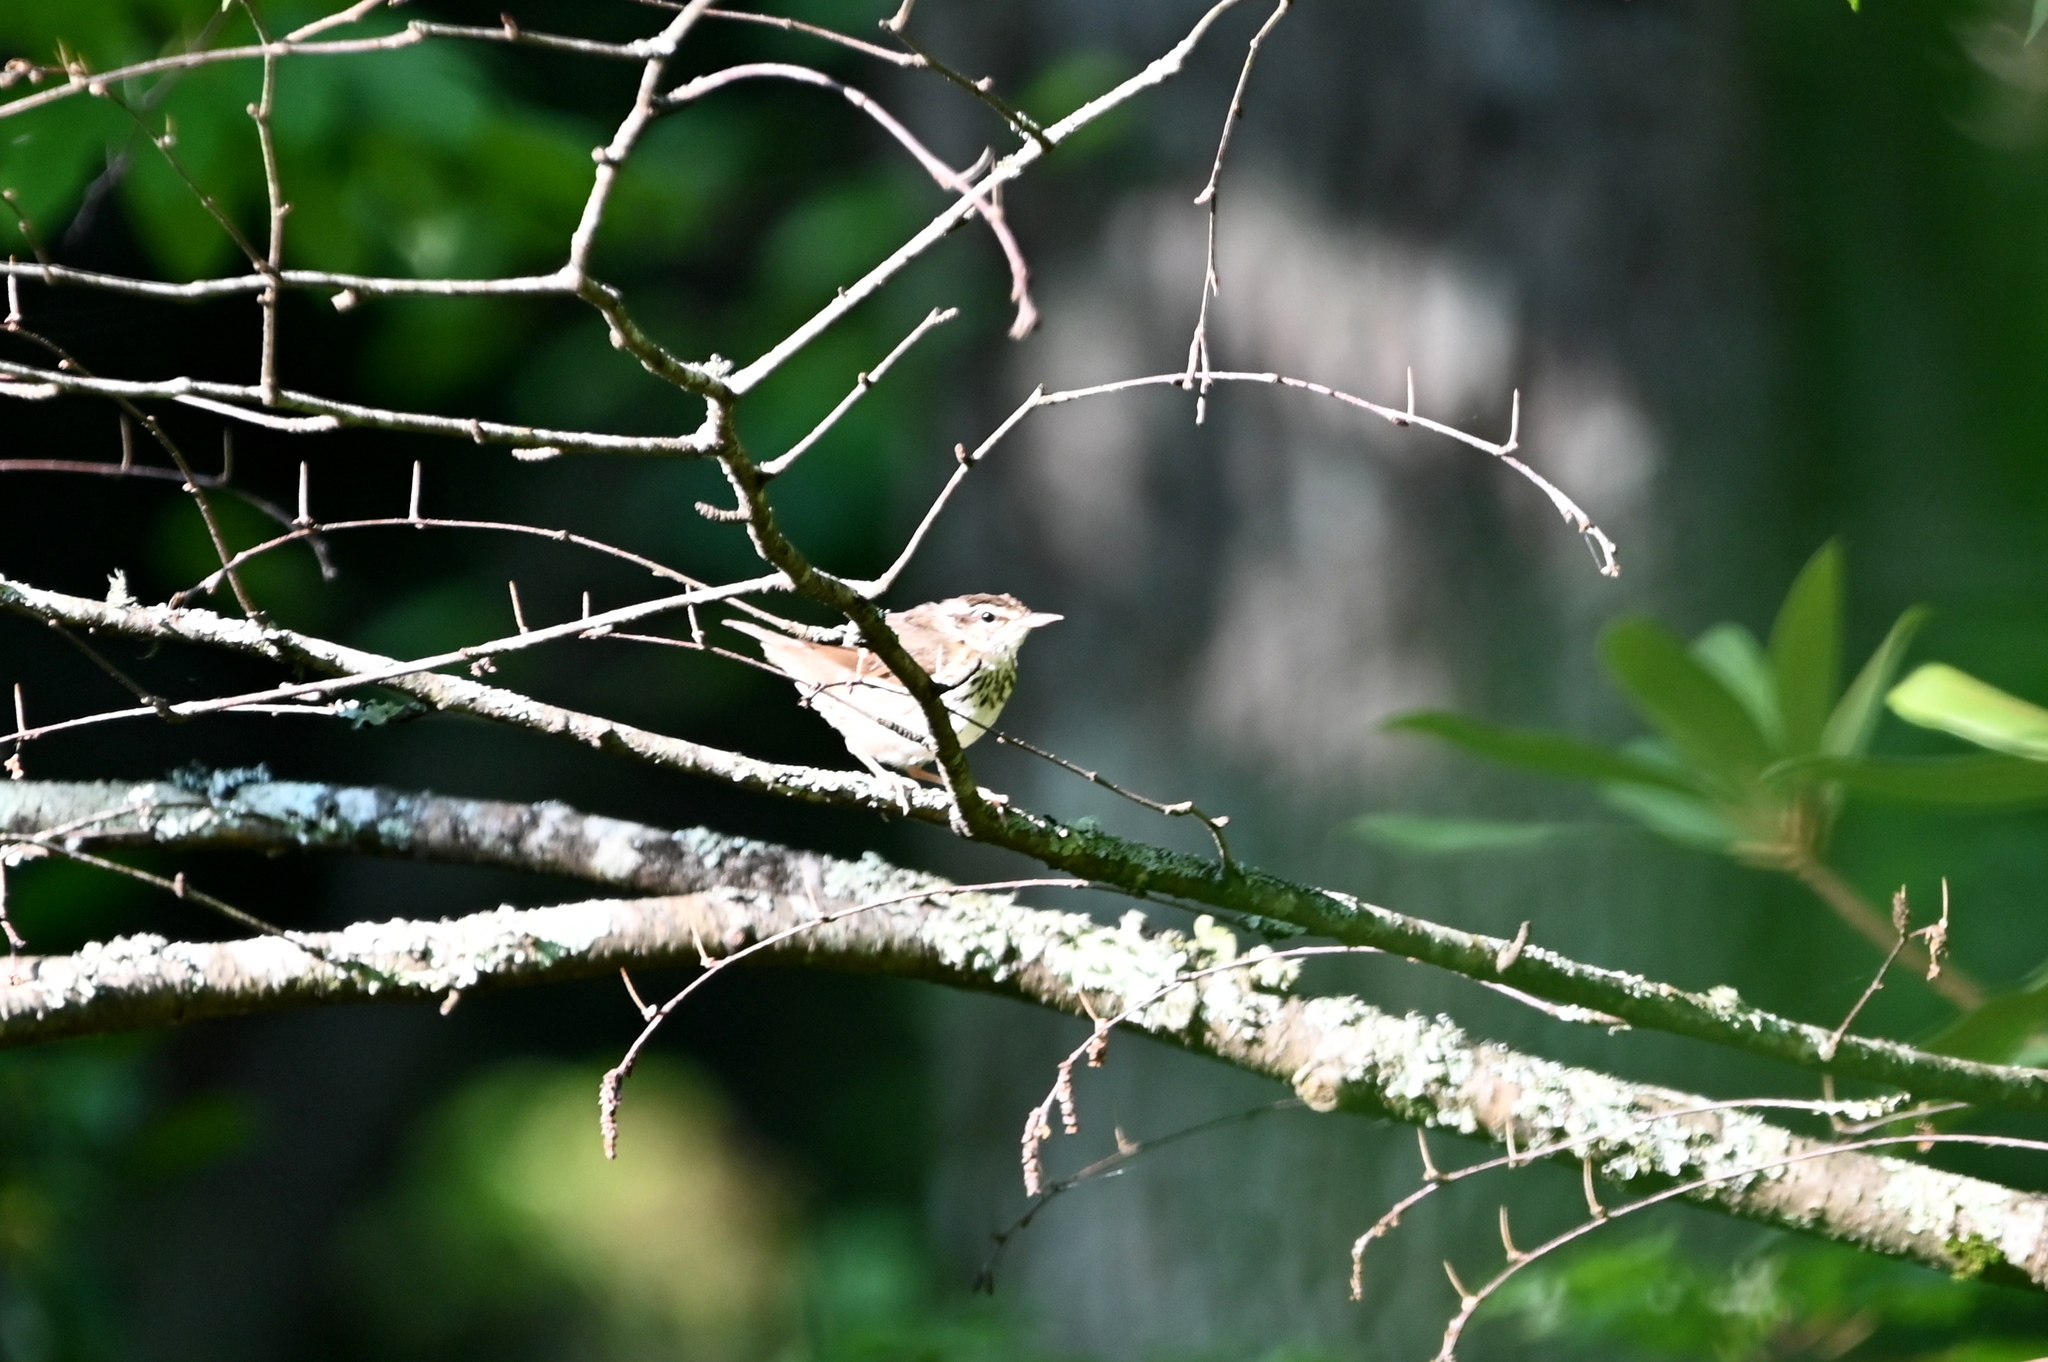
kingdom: Animalia
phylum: Chordata
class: Aves
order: Passeriformes
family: Parulidae
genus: Parkesia
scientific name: Parkesia motacilla
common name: Louisiana waterthrush
